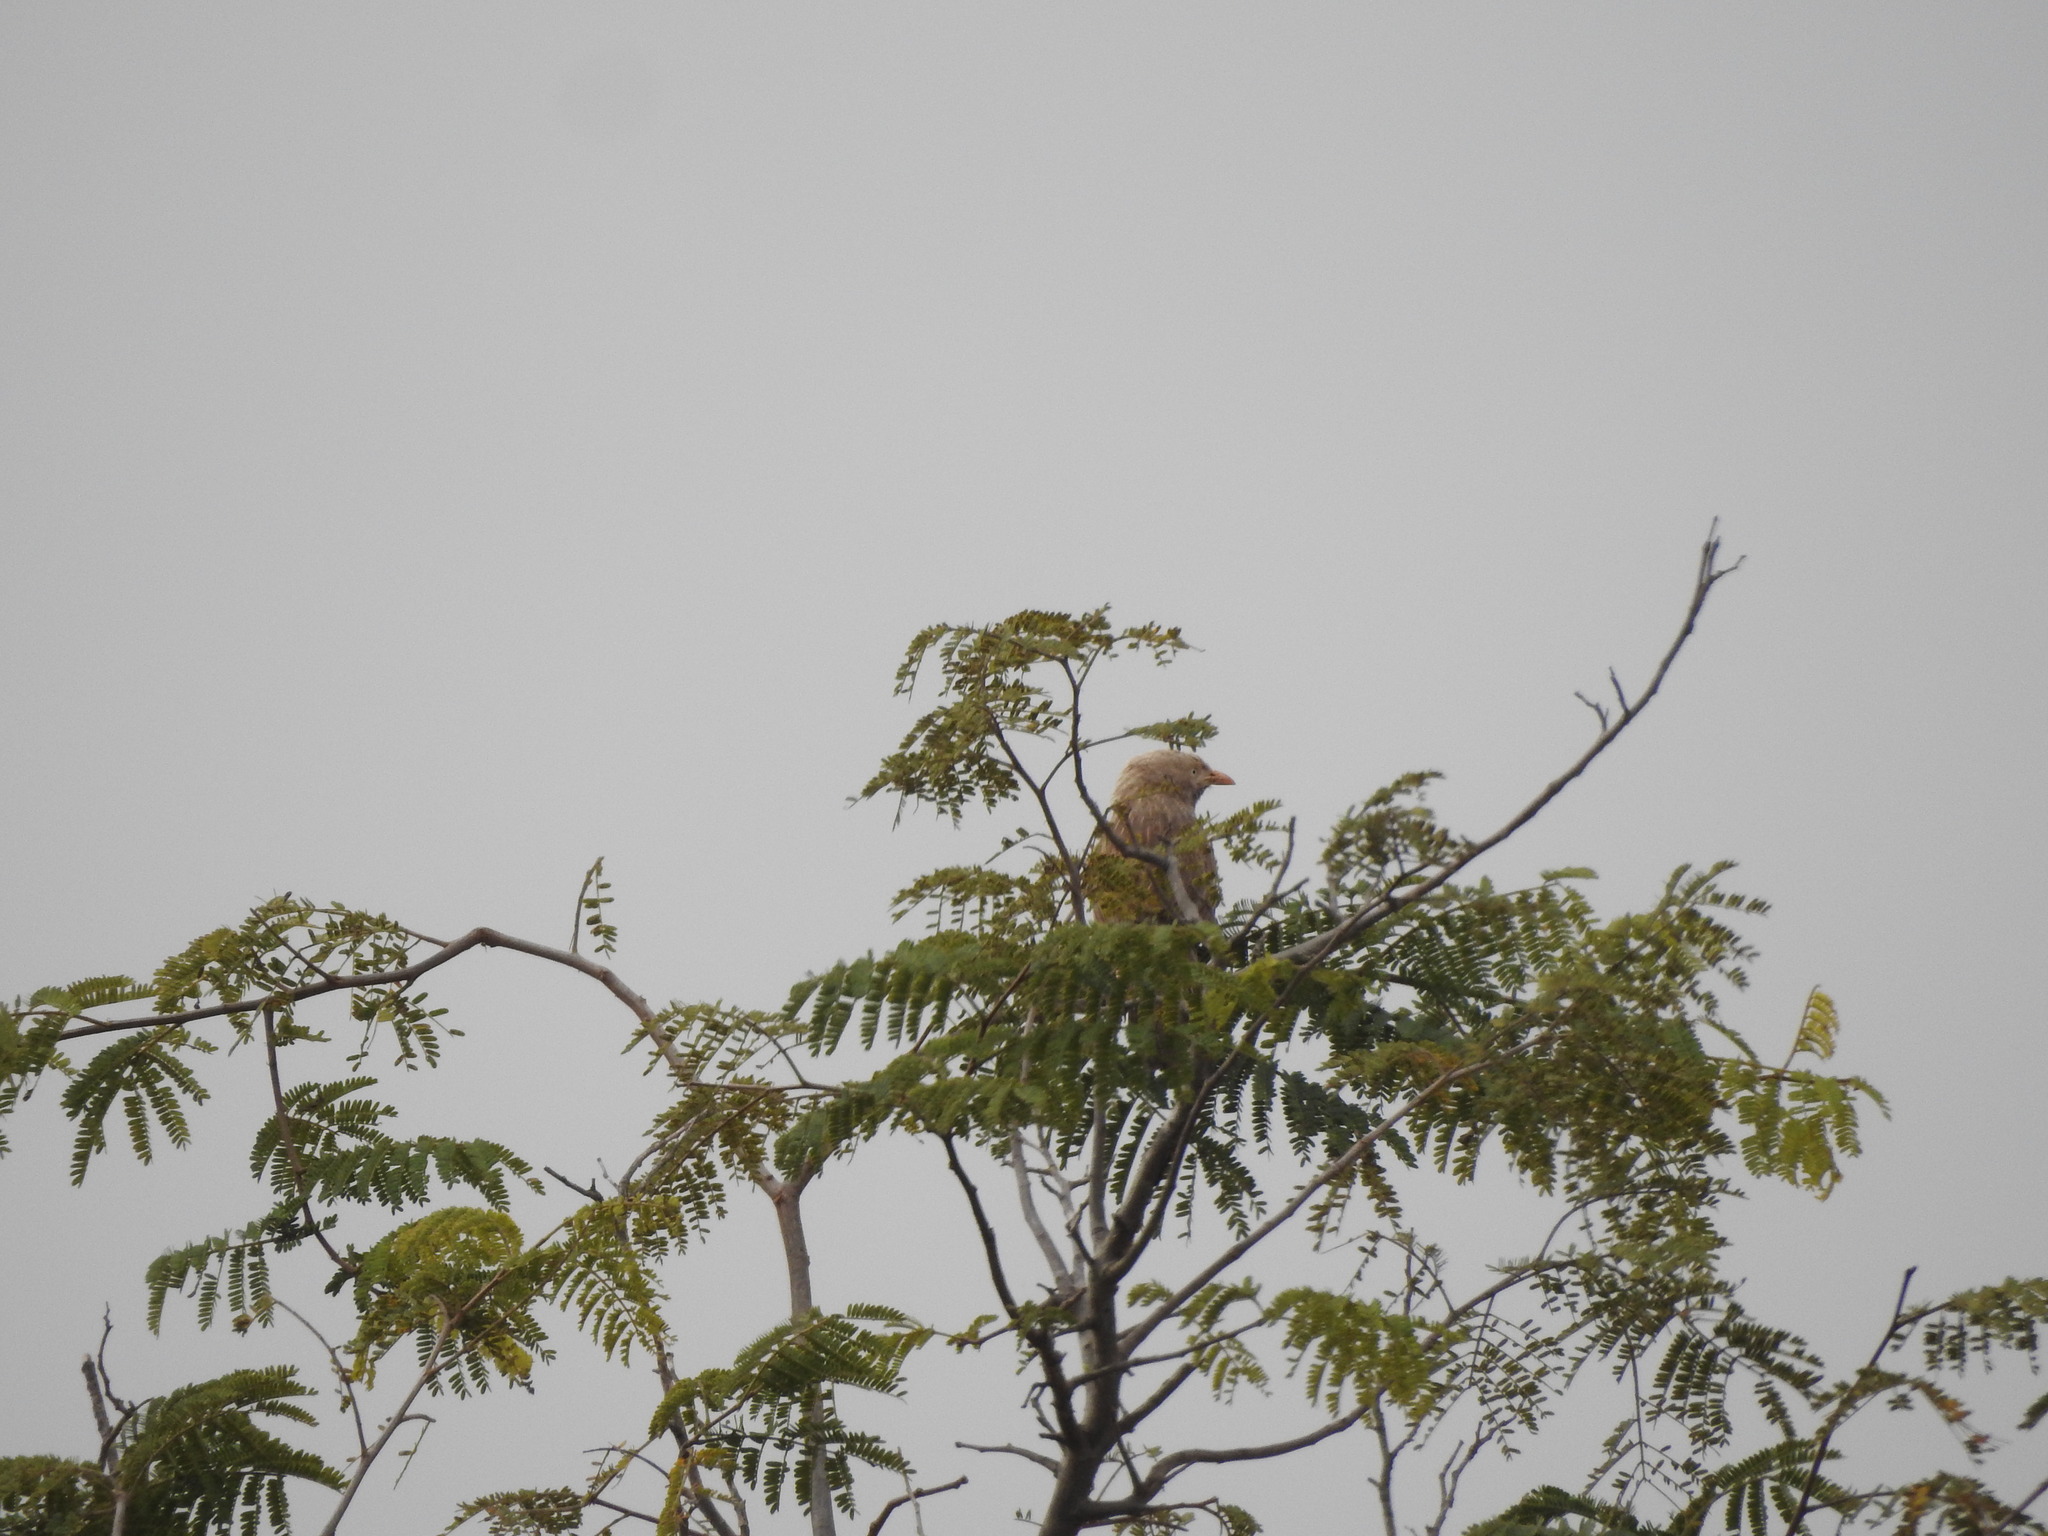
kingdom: Animalia
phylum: Chordata
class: Aves
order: Passeriformes
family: Leiothrichidae
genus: Turdoides
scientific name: Turdoides affinis
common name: Yellow-billed babbler
